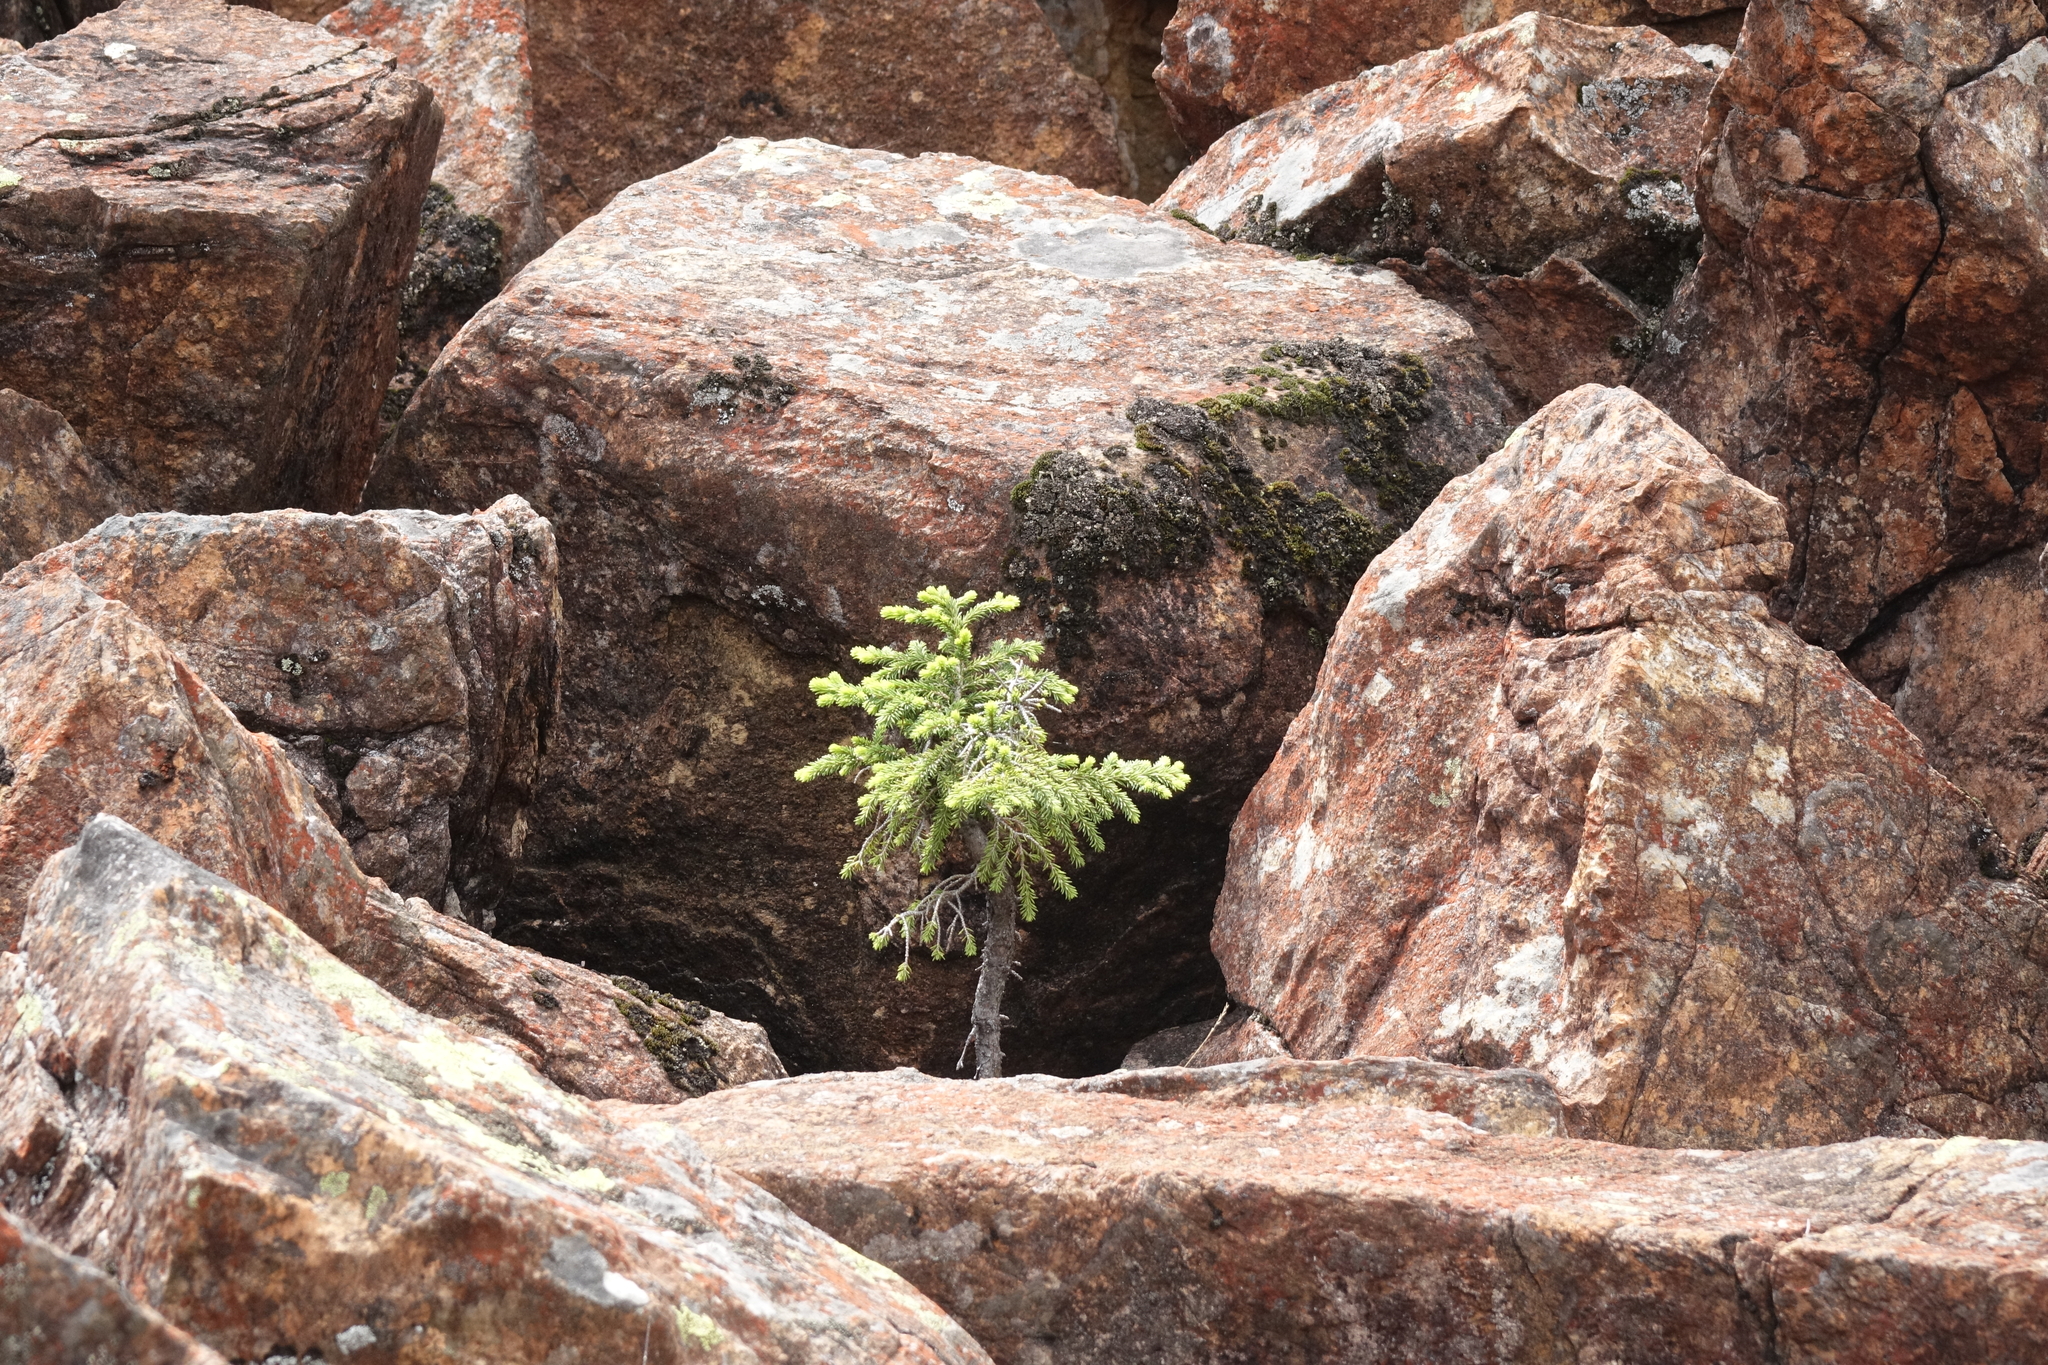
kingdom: Plantae
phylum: Tracheophyta
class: Pinopsida
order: Pinales
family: Pinaceae
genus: Picea
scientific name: Picea obovata
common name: Siberian spruce
